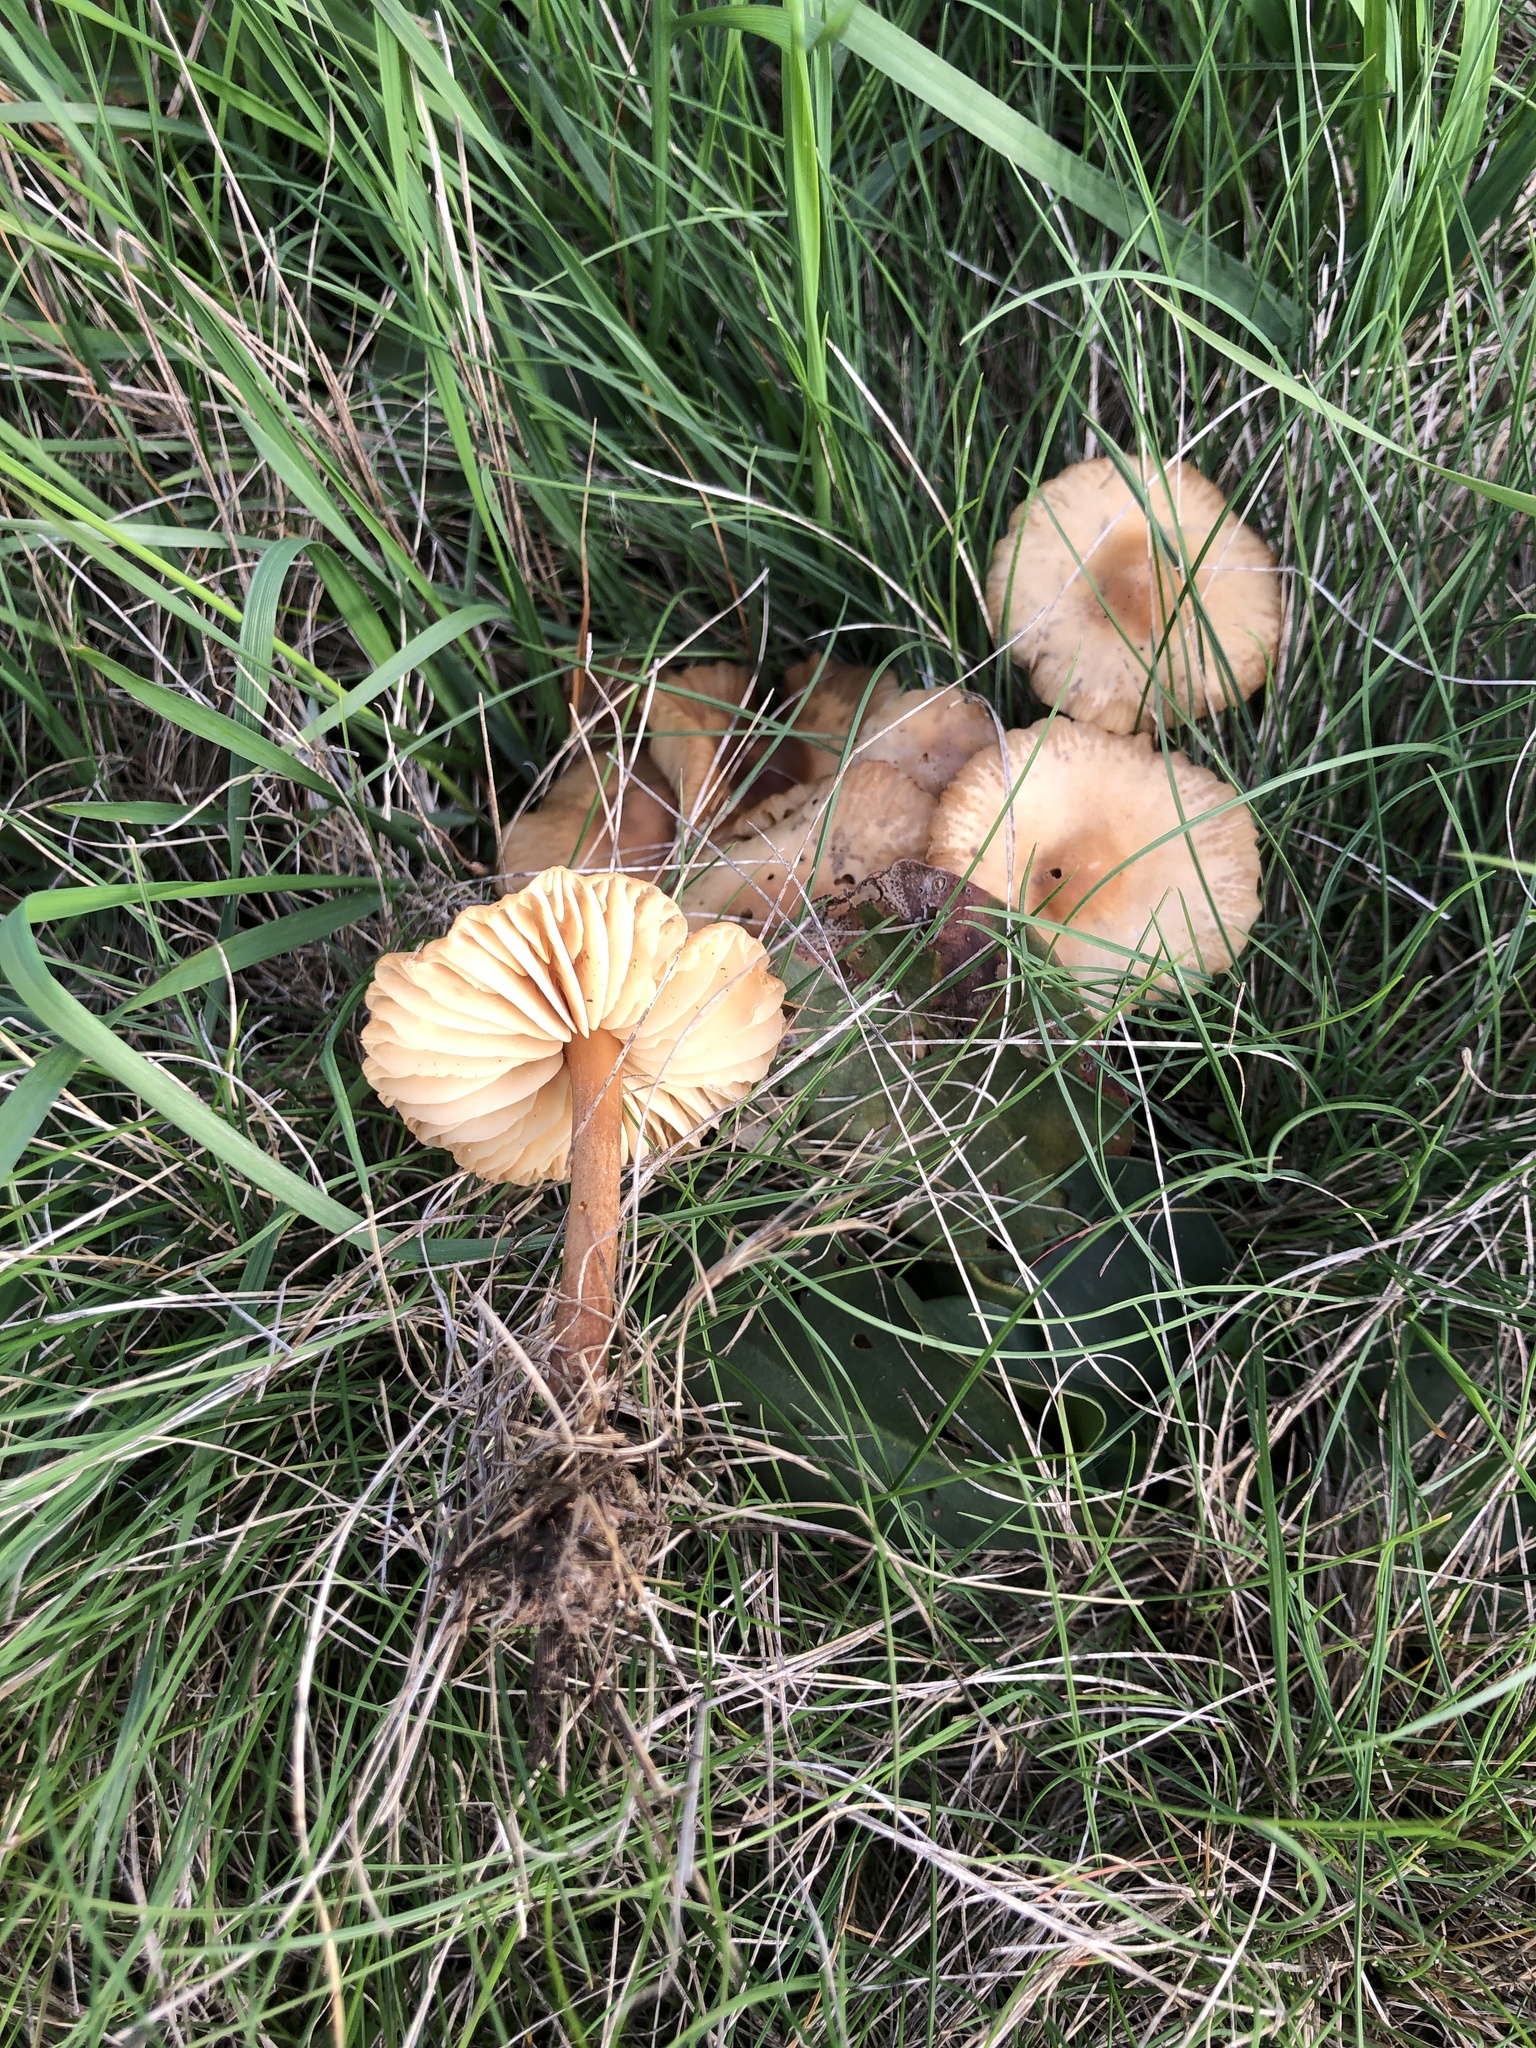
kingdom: Fungi
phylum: Basidiomycota
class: Agaricomycetes
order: Agaricales
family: Marasmiaceae
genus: Marasmius
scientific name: Marasmius oreades
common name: Fairy ring champignon
